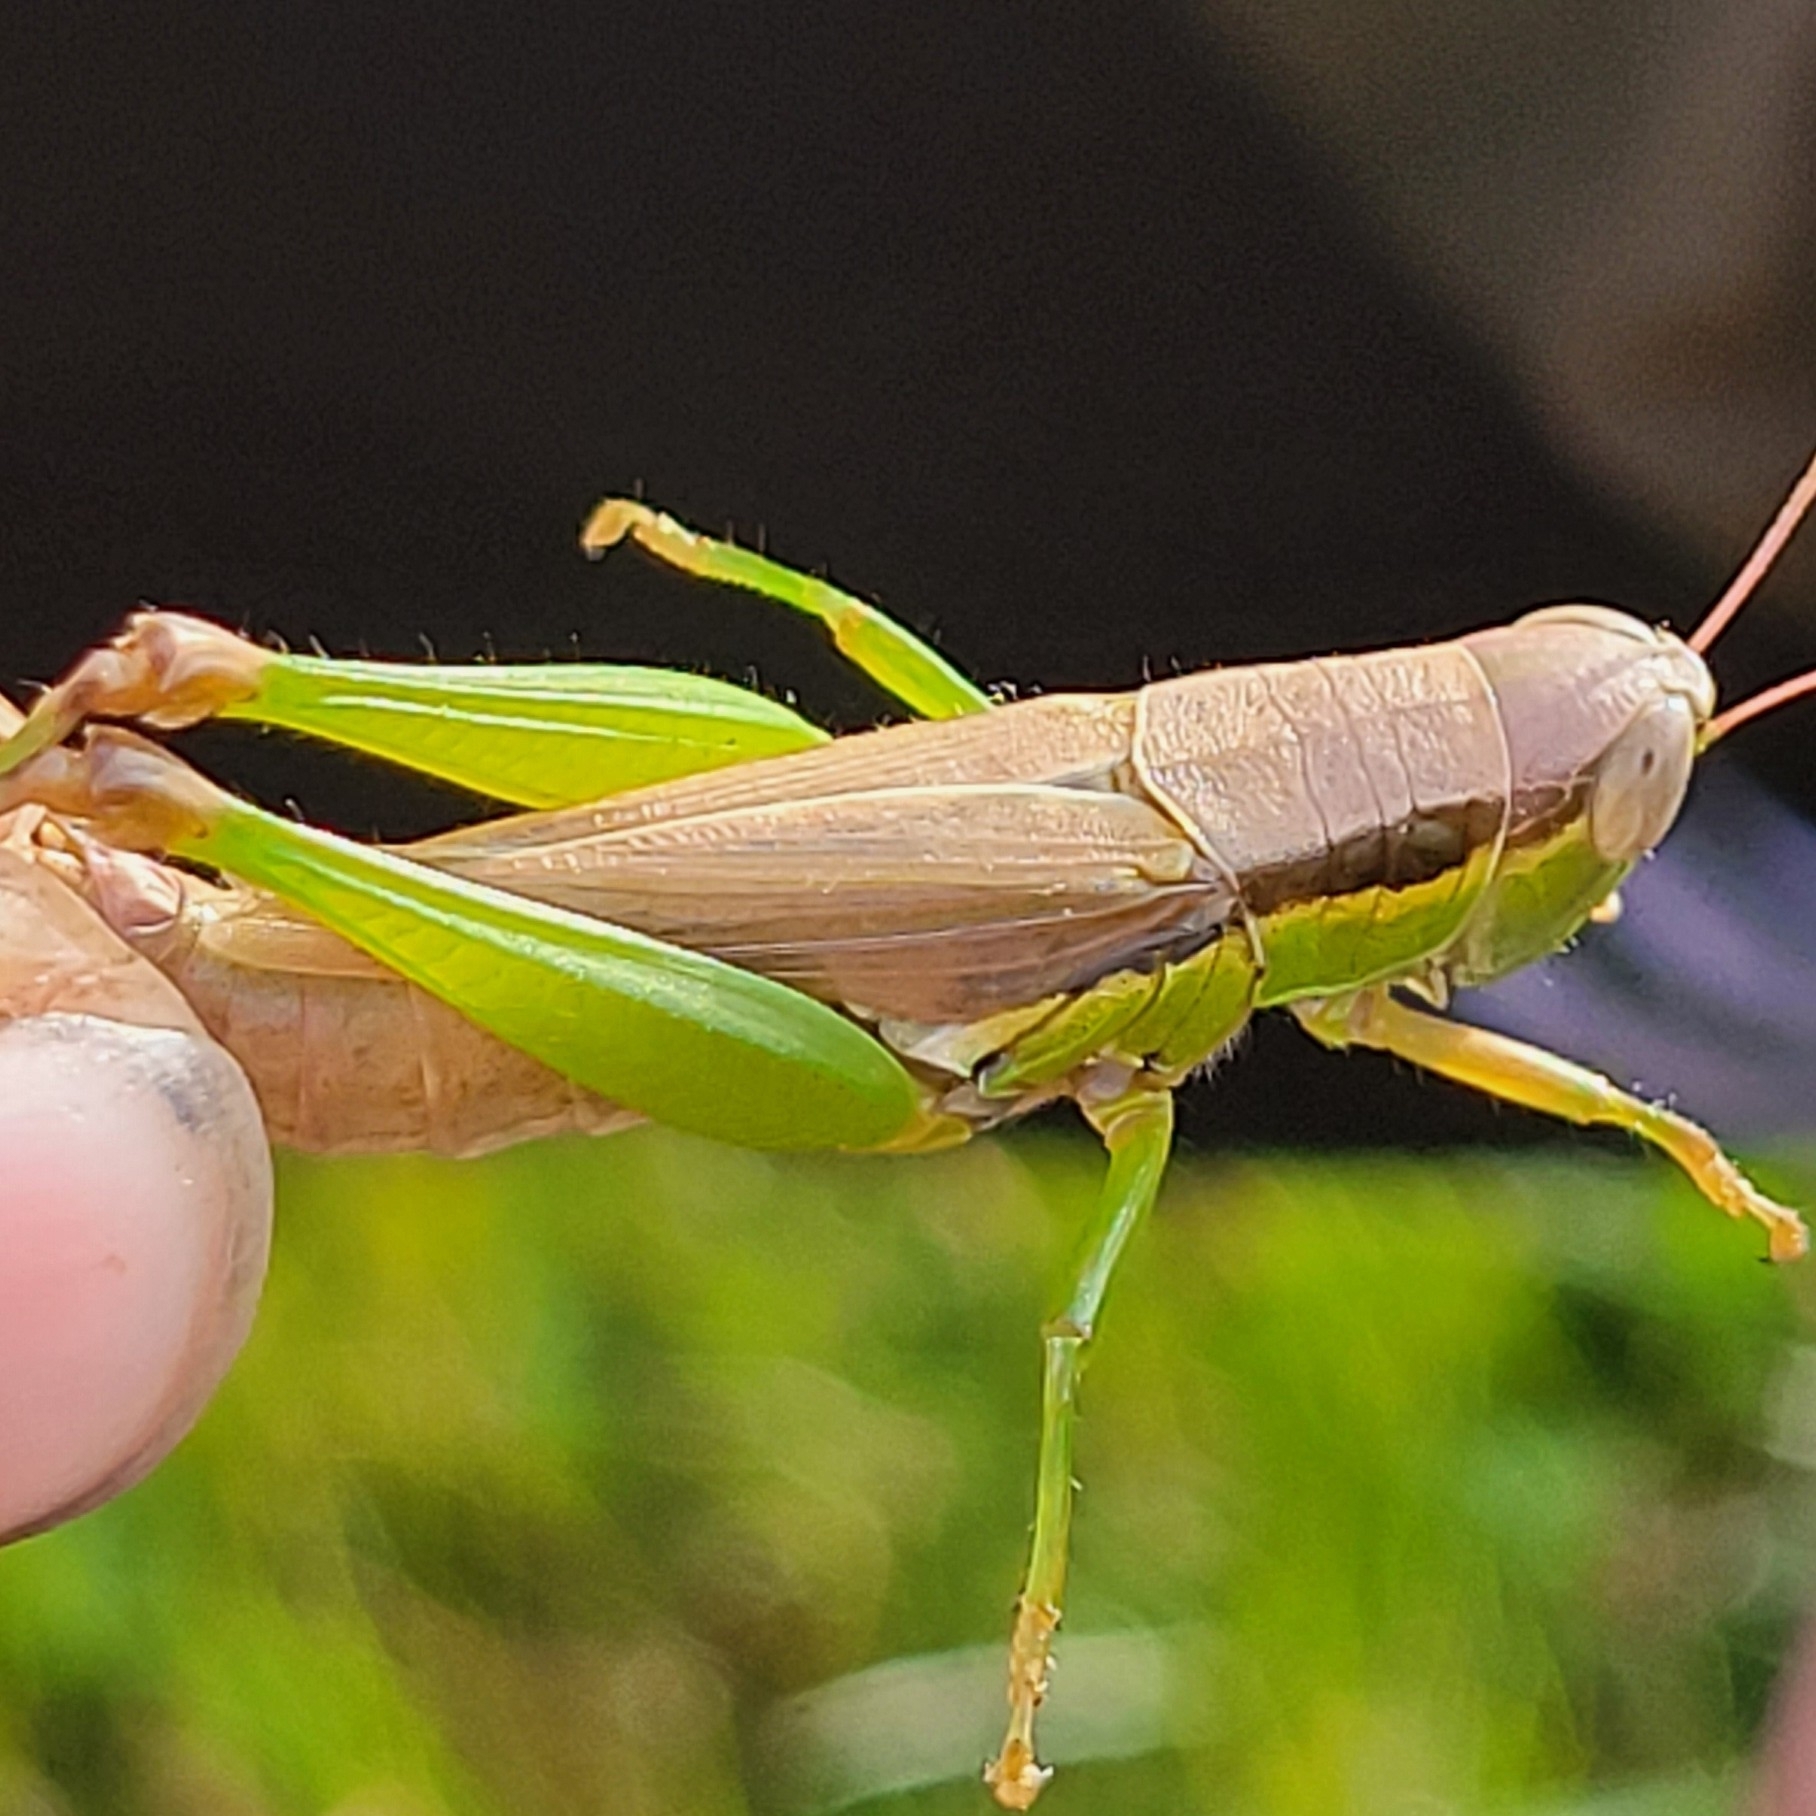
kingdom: Animalia
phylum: Arthropoda
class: Insecta
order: Orthoptera
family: Acrididae
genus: Oxya
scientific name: Oxya velox
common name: Rice grasshopper
